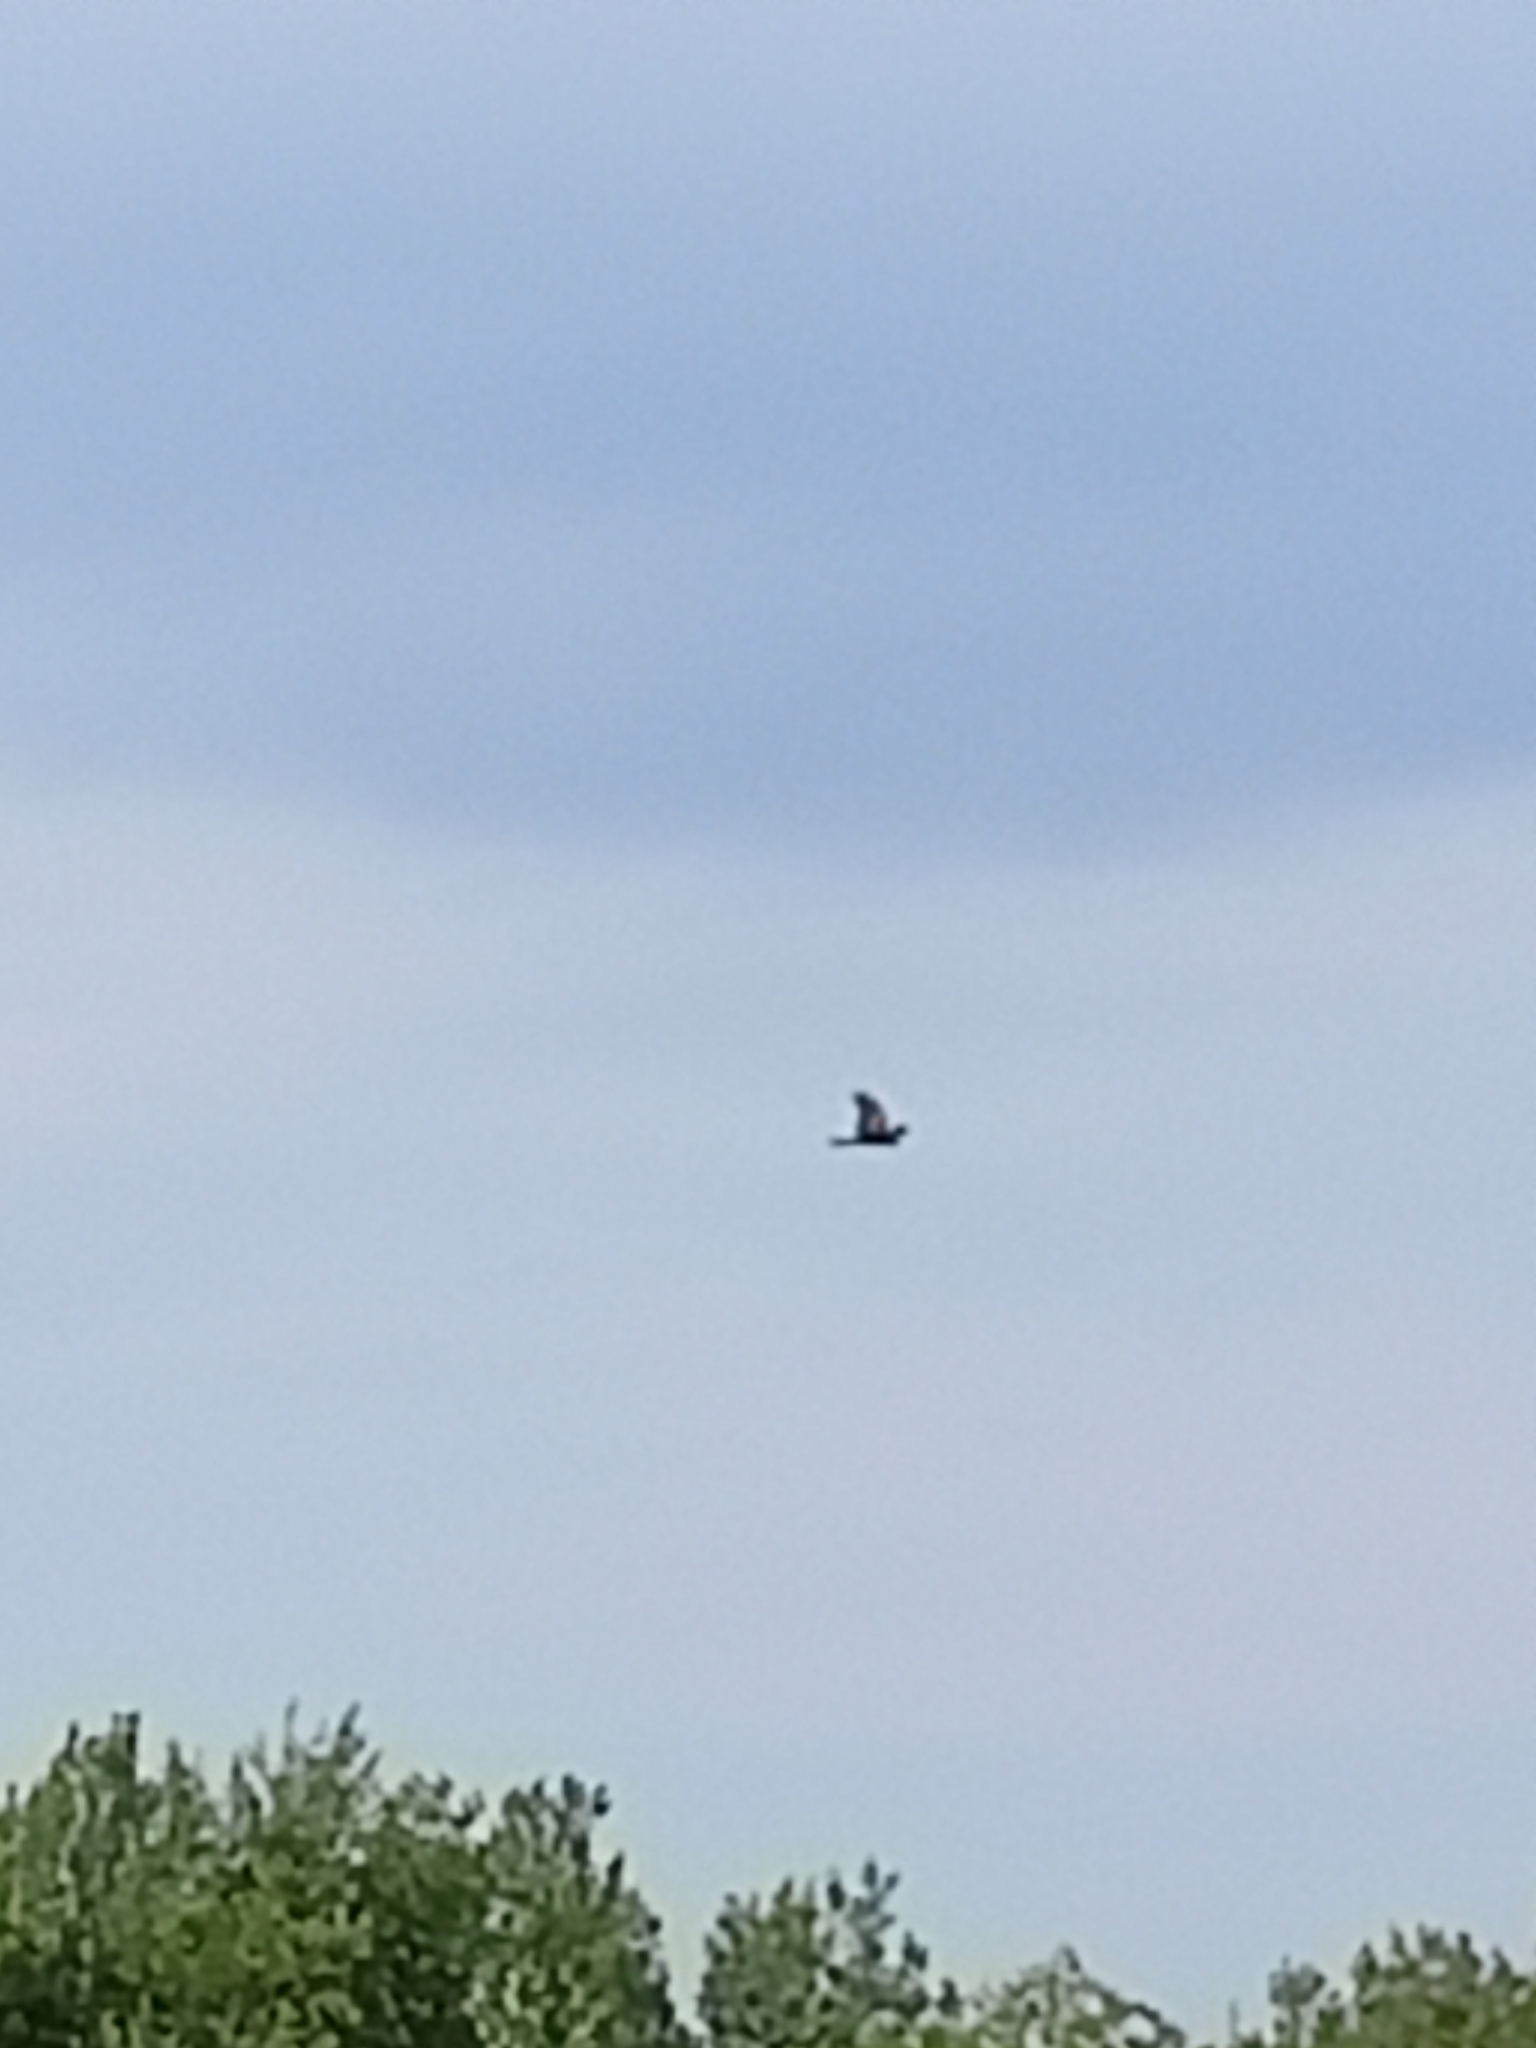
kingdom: Animalia
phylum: Chordata
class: Aves
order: Accipitriformes
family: Accipitridae
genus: Milvus
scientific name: Milvus migrans
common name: Black kite
